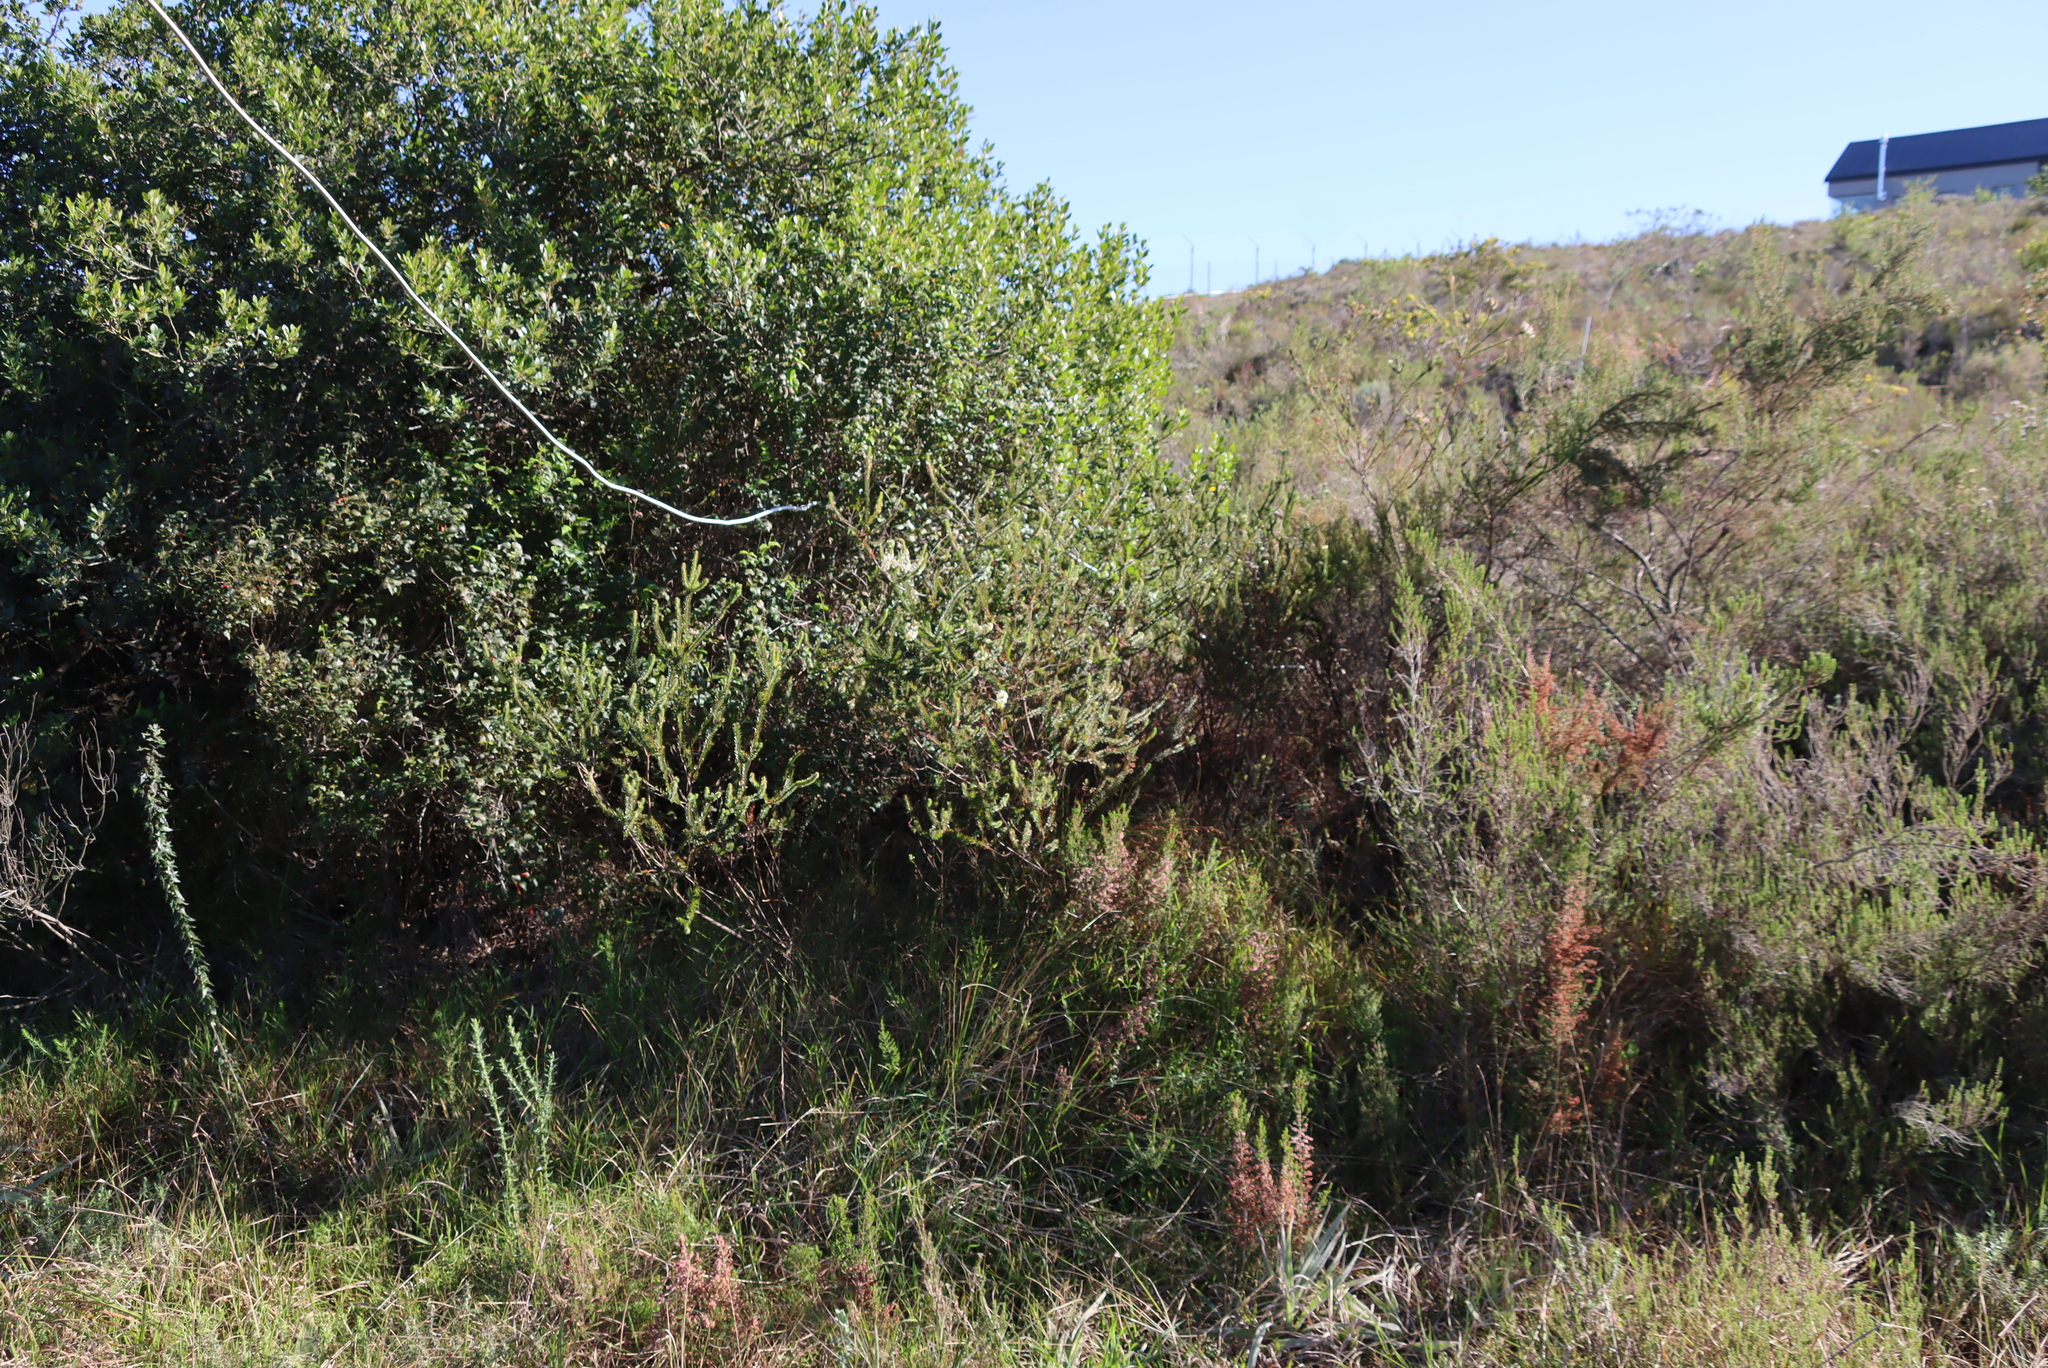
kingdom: Plantae
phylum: Tracheophyta
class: Magnoliopsida
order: Malvales
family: Thymelaeaceae
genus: Struthiola
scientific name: Struthiola hirsuta
